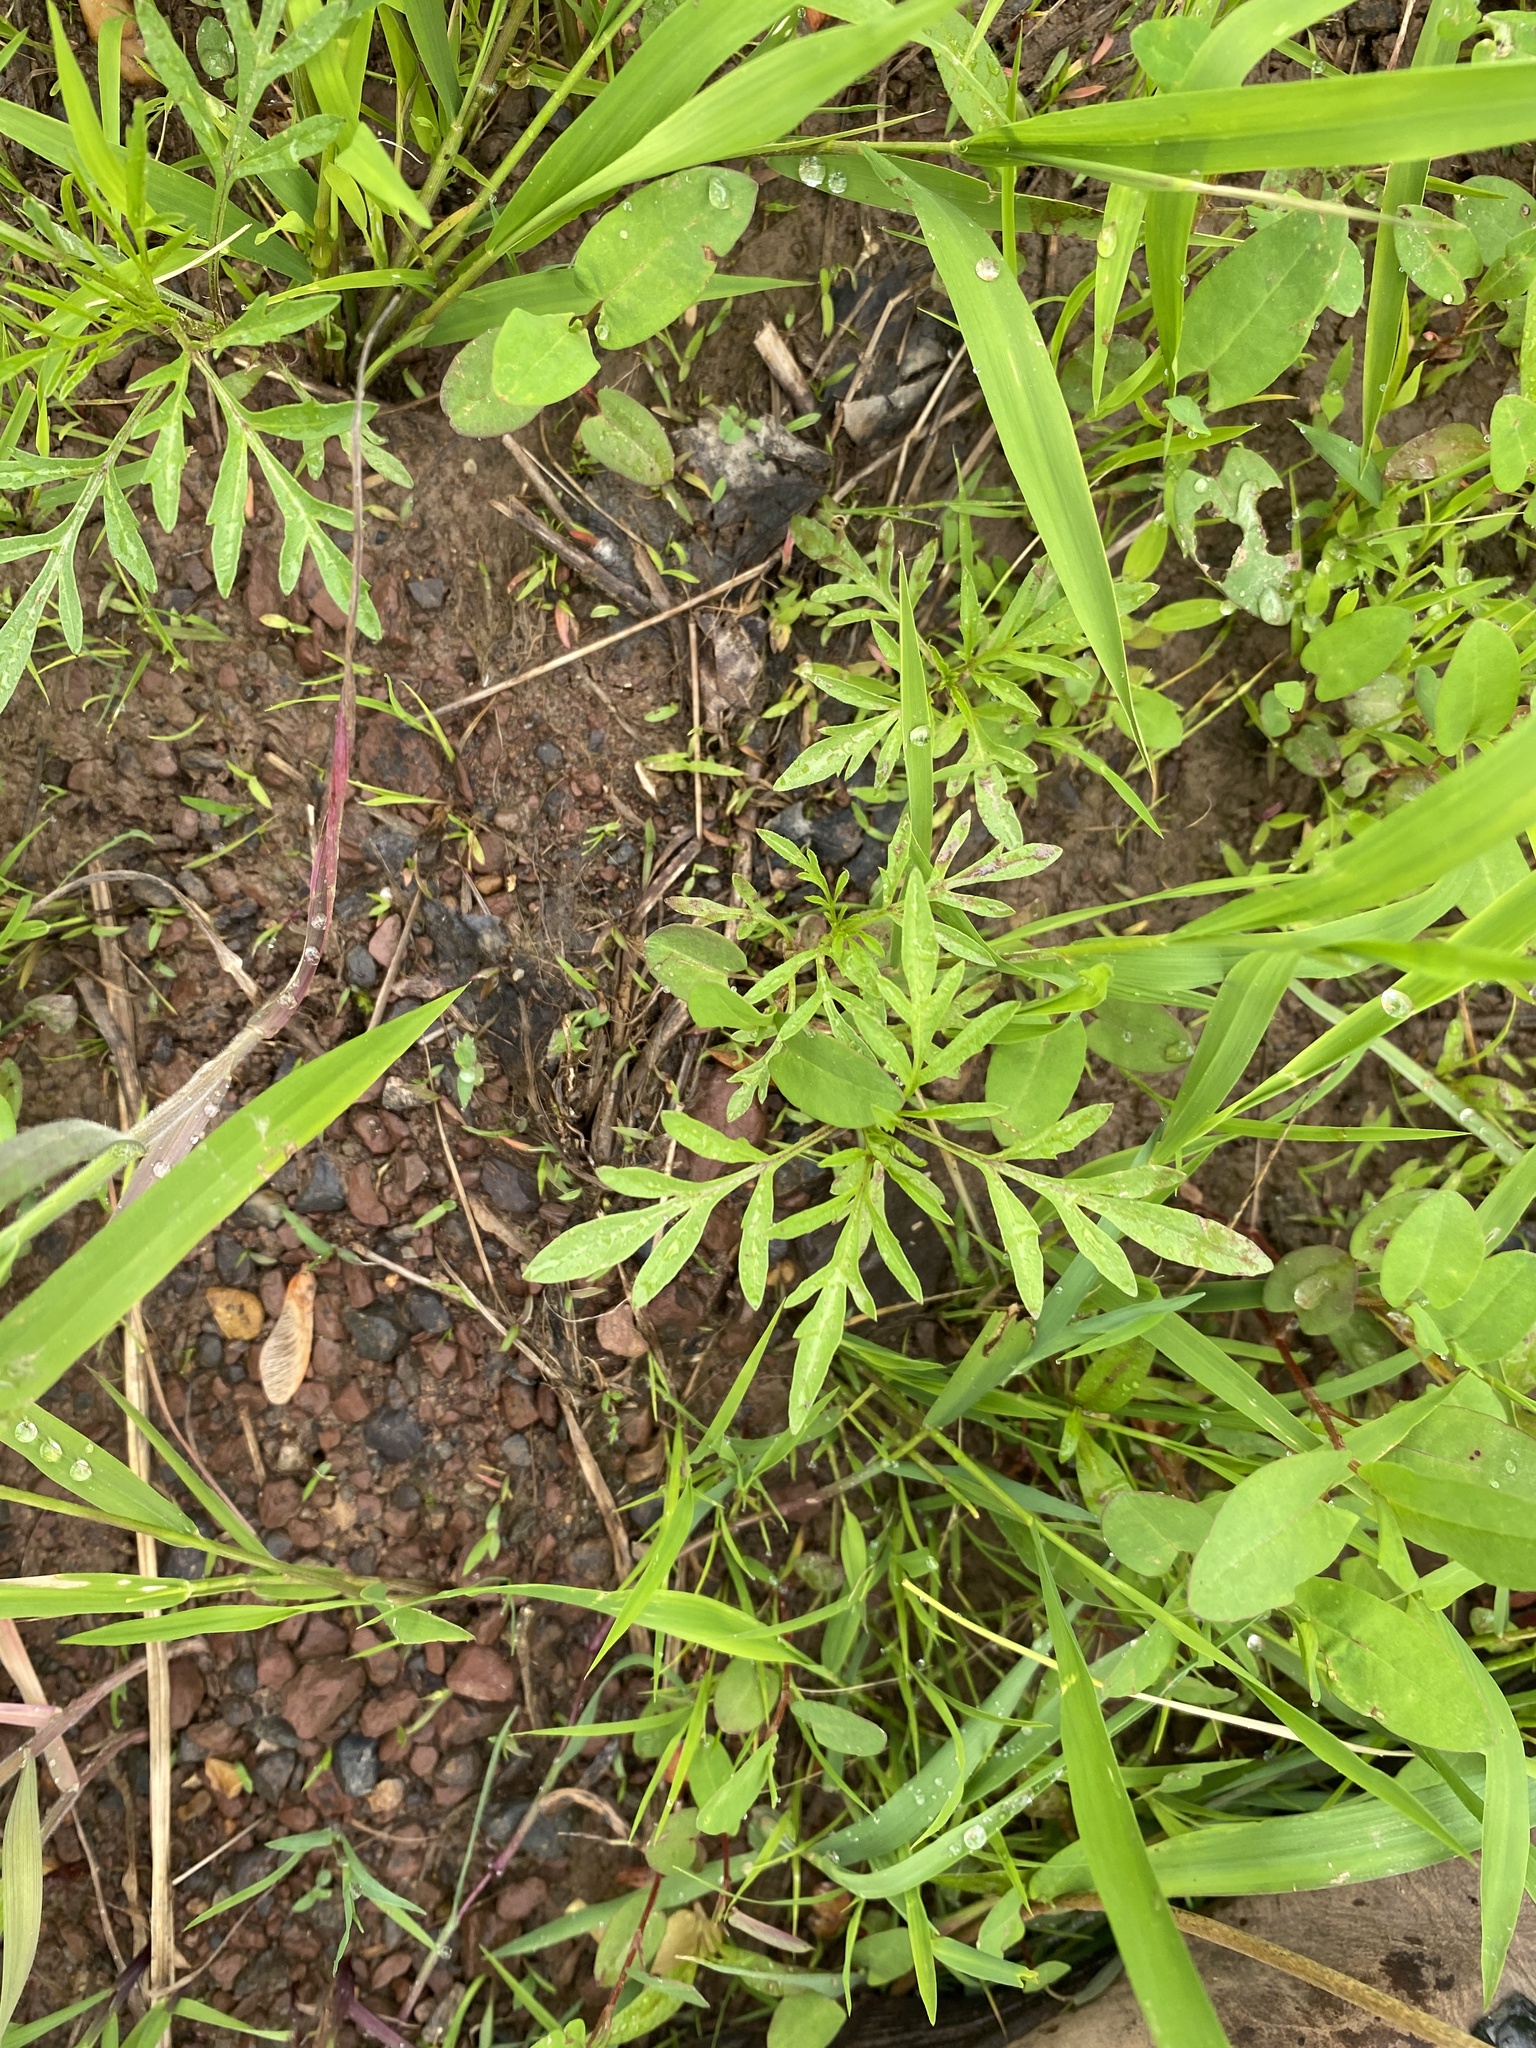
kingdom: Plantae
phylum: Tracheophyta
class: Magnoliopsida
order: Asterales
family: Asteraceae
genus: Ambrosia
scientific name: Ambrosia artemisiifolia
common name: Annual ragweed
